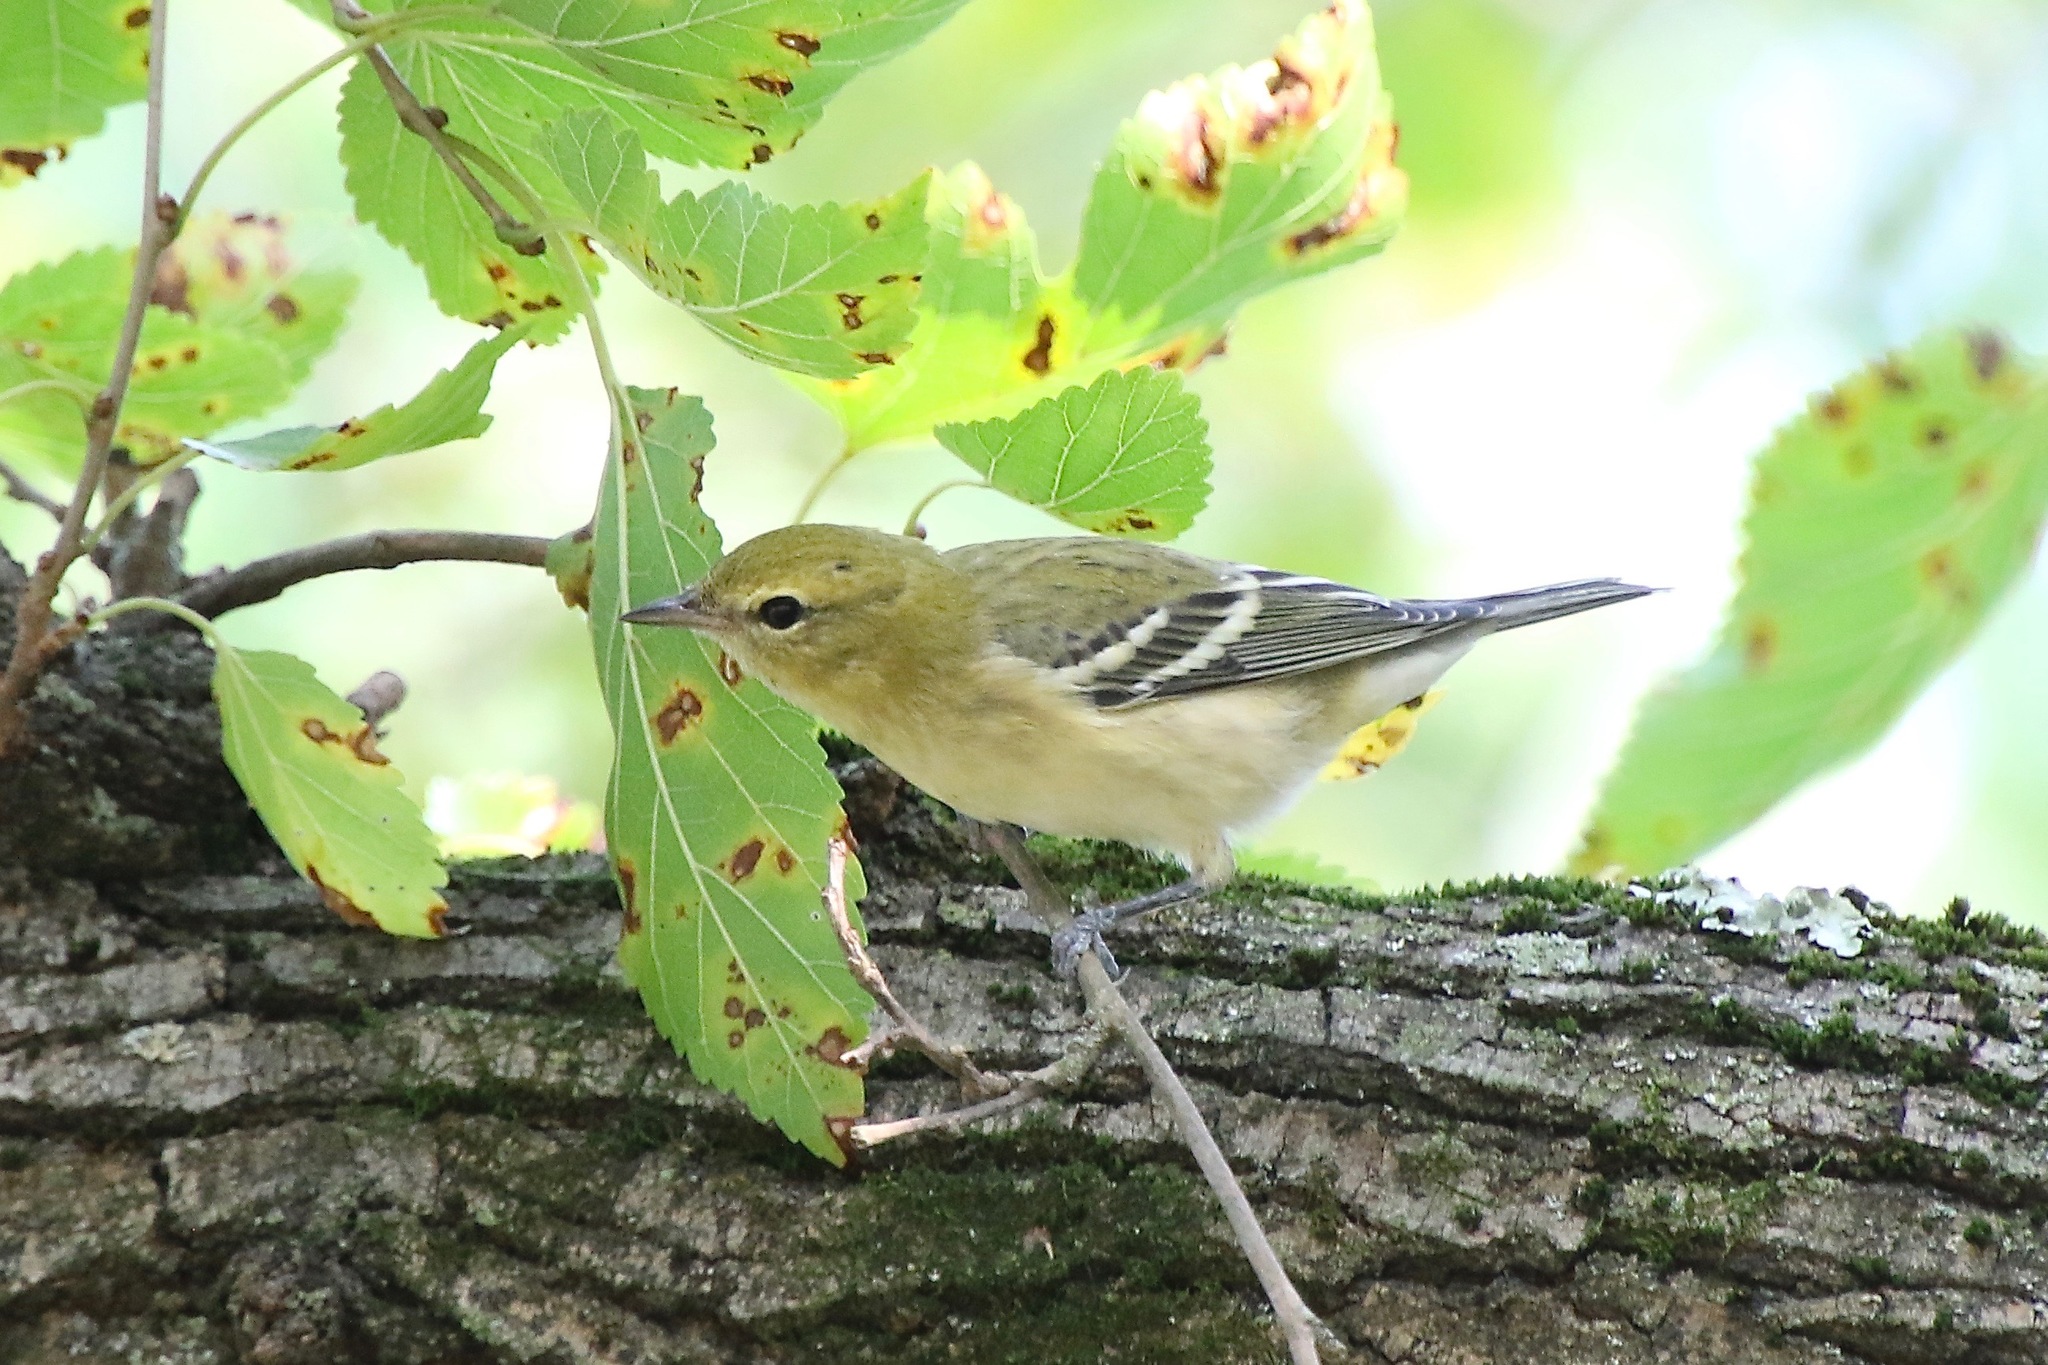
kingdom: Animalia
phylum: Chordata
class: Aves
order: Passeriformes
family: Parulidae
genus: Setophaga
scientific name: Setophaga castanea
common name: Bay-breasted warbler
